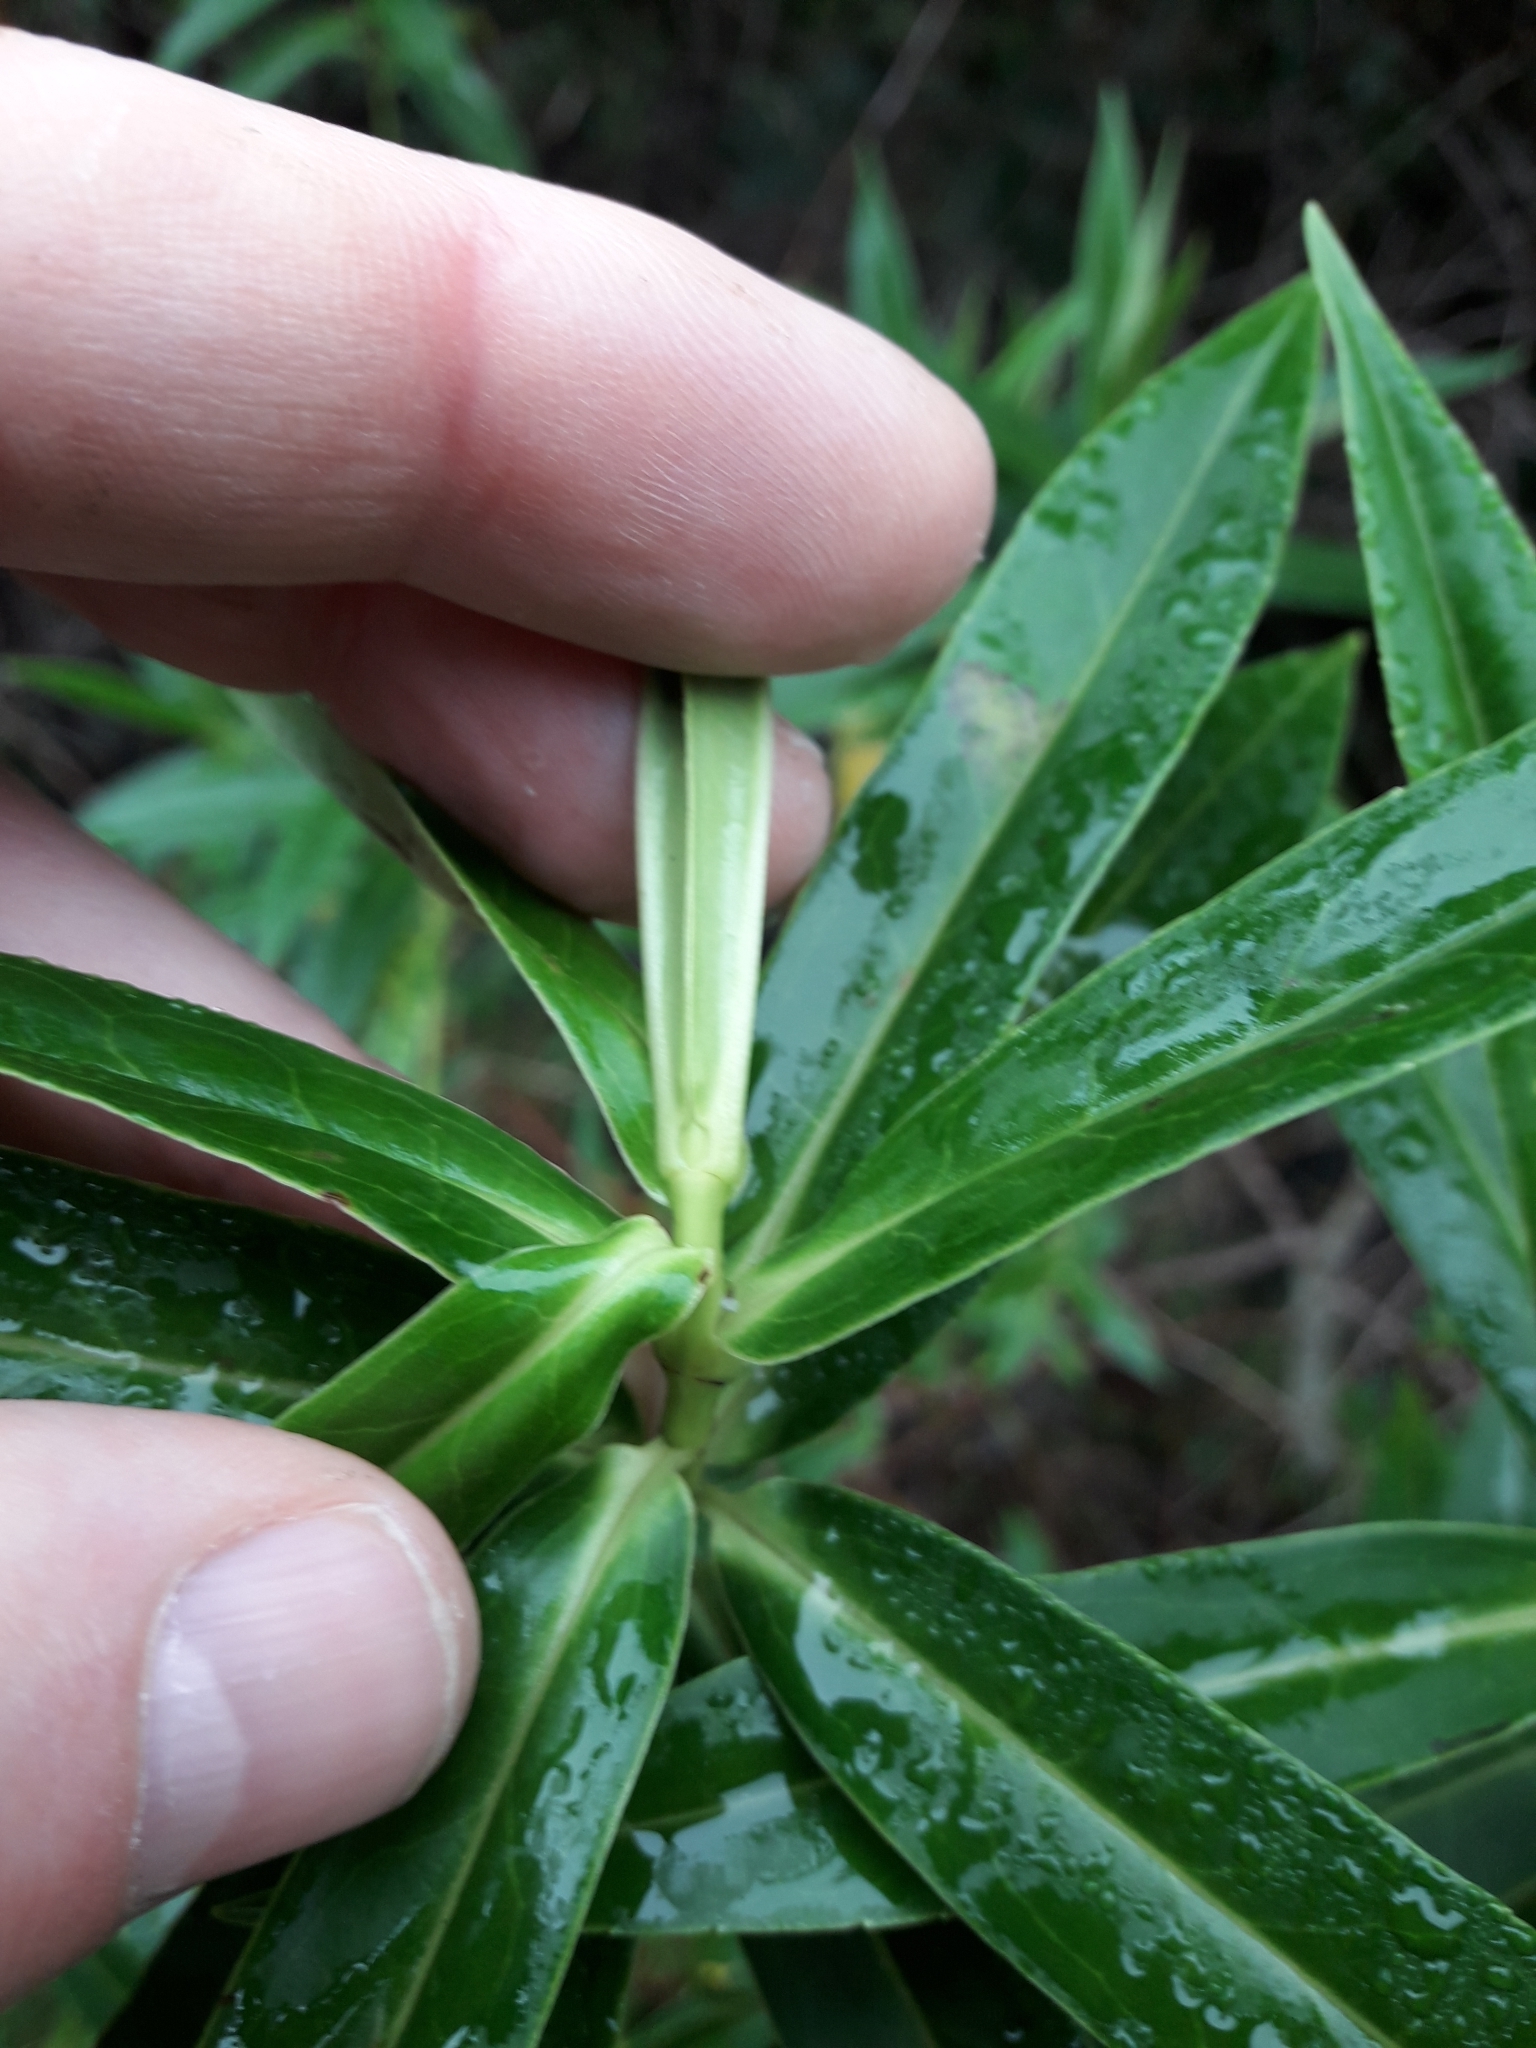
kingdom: Plantae
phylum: Tracheophyta
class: Magnoliopsida
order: Lamiales
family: Plantaginaceae
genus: Veronica
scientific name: Veronica salicifolia
